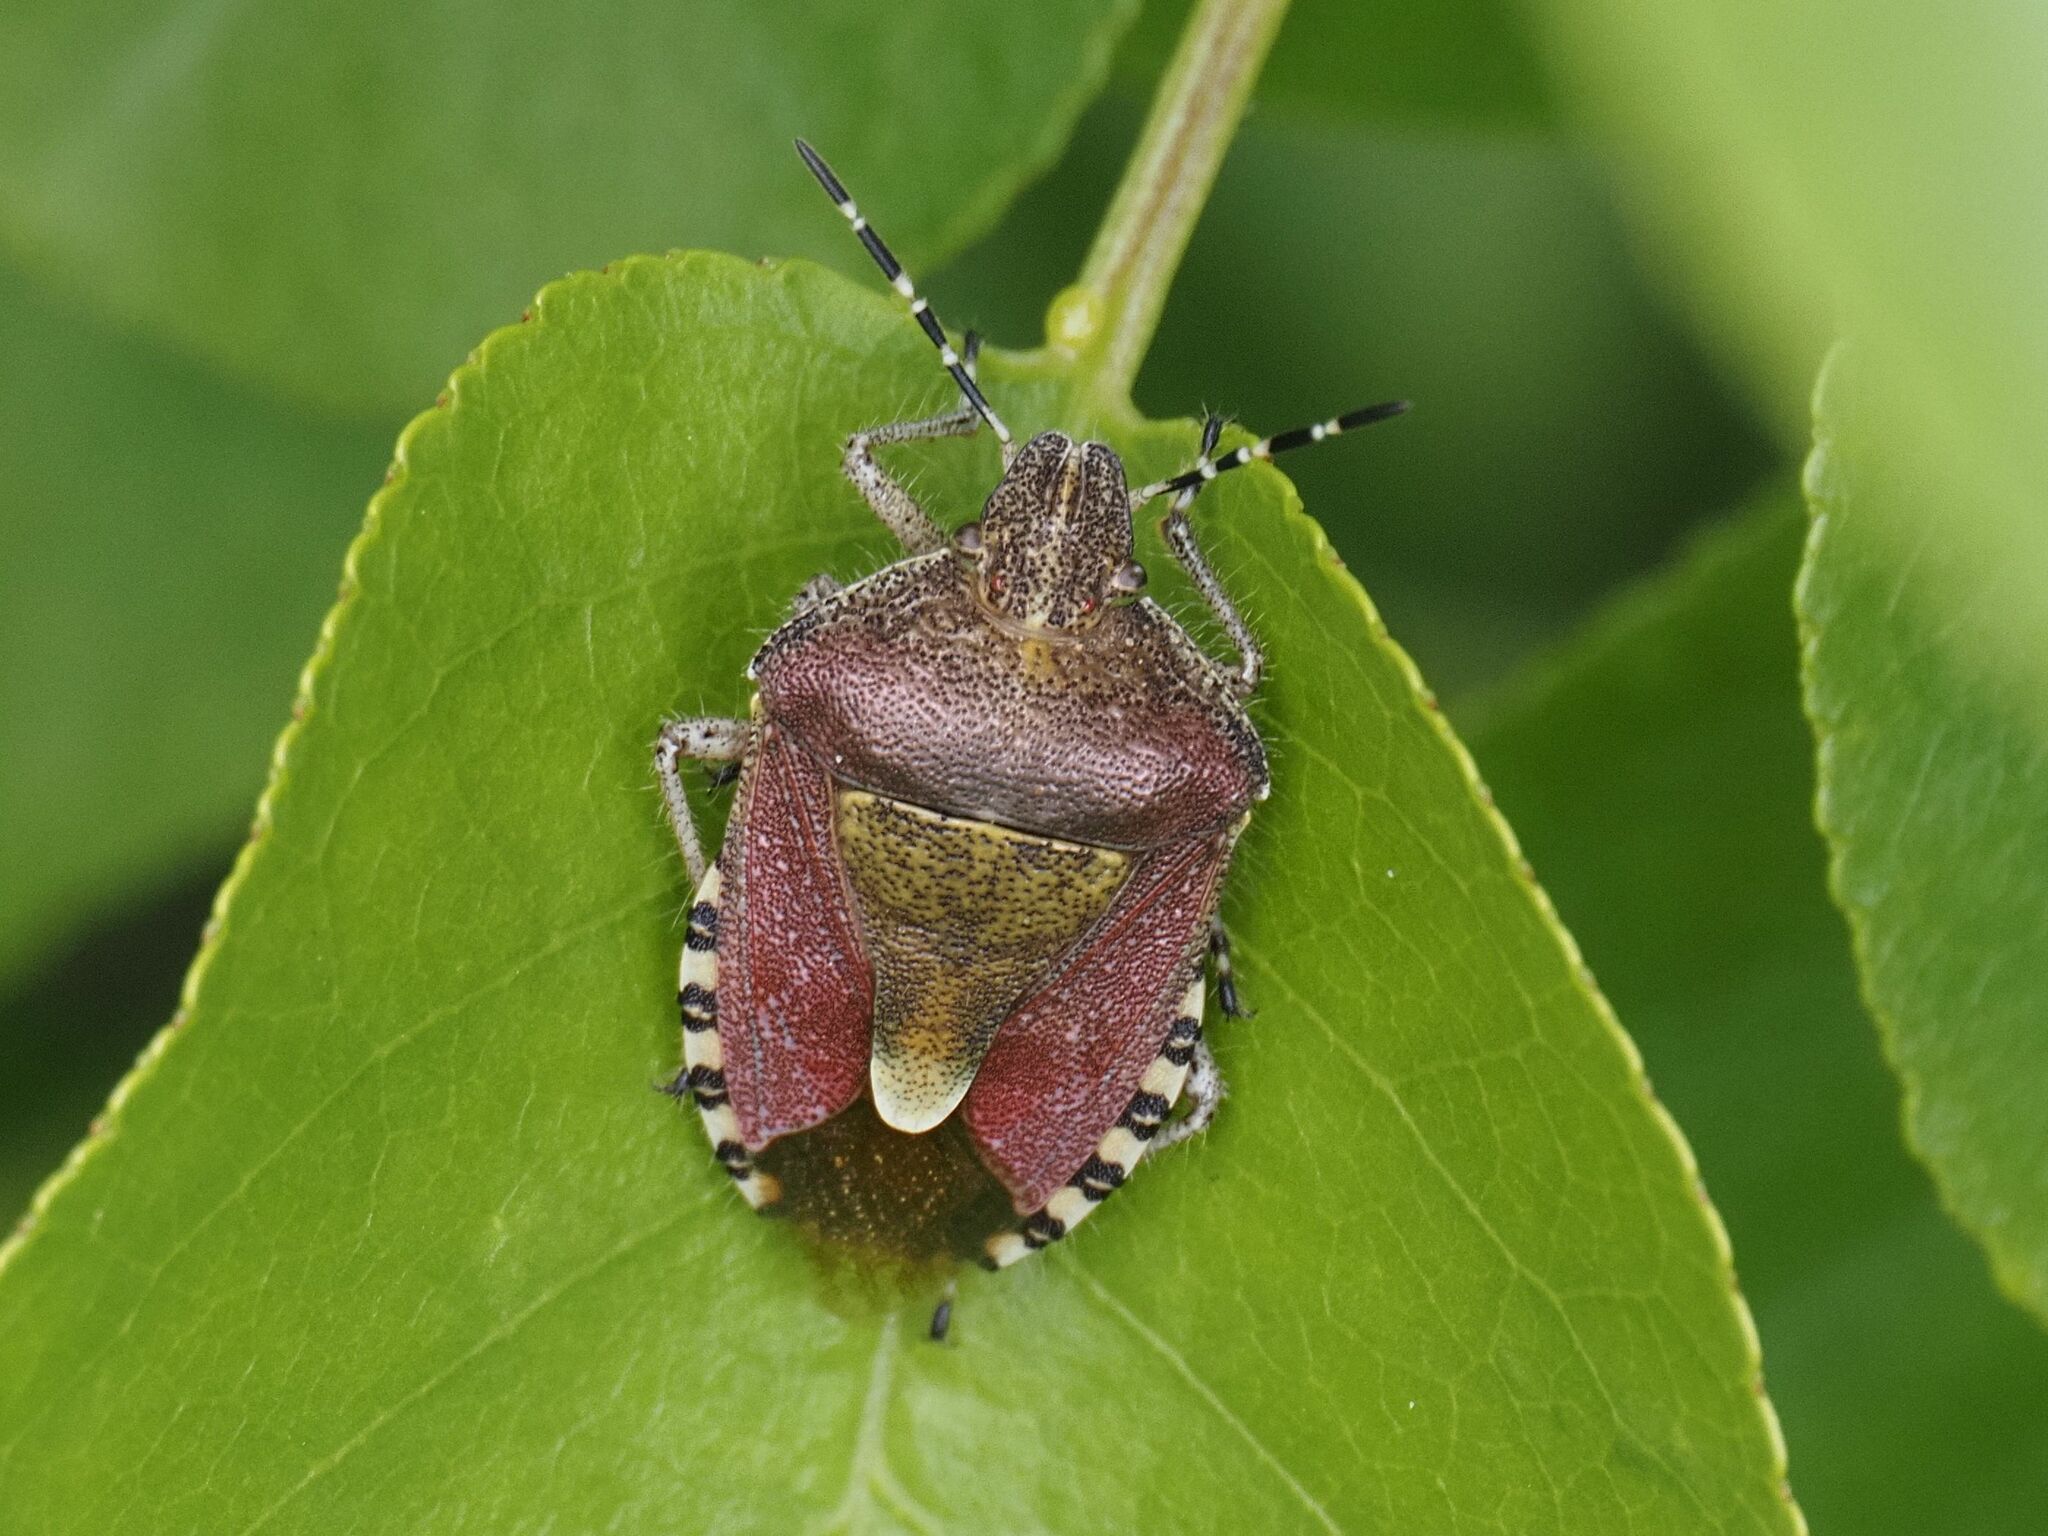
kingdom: Animalia
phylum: Arthropoda
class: Insecta
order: Hemiptera
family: Pentatomidae
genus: Dolycoris
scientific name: Dolycoris baccarum
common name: Sloe bug
